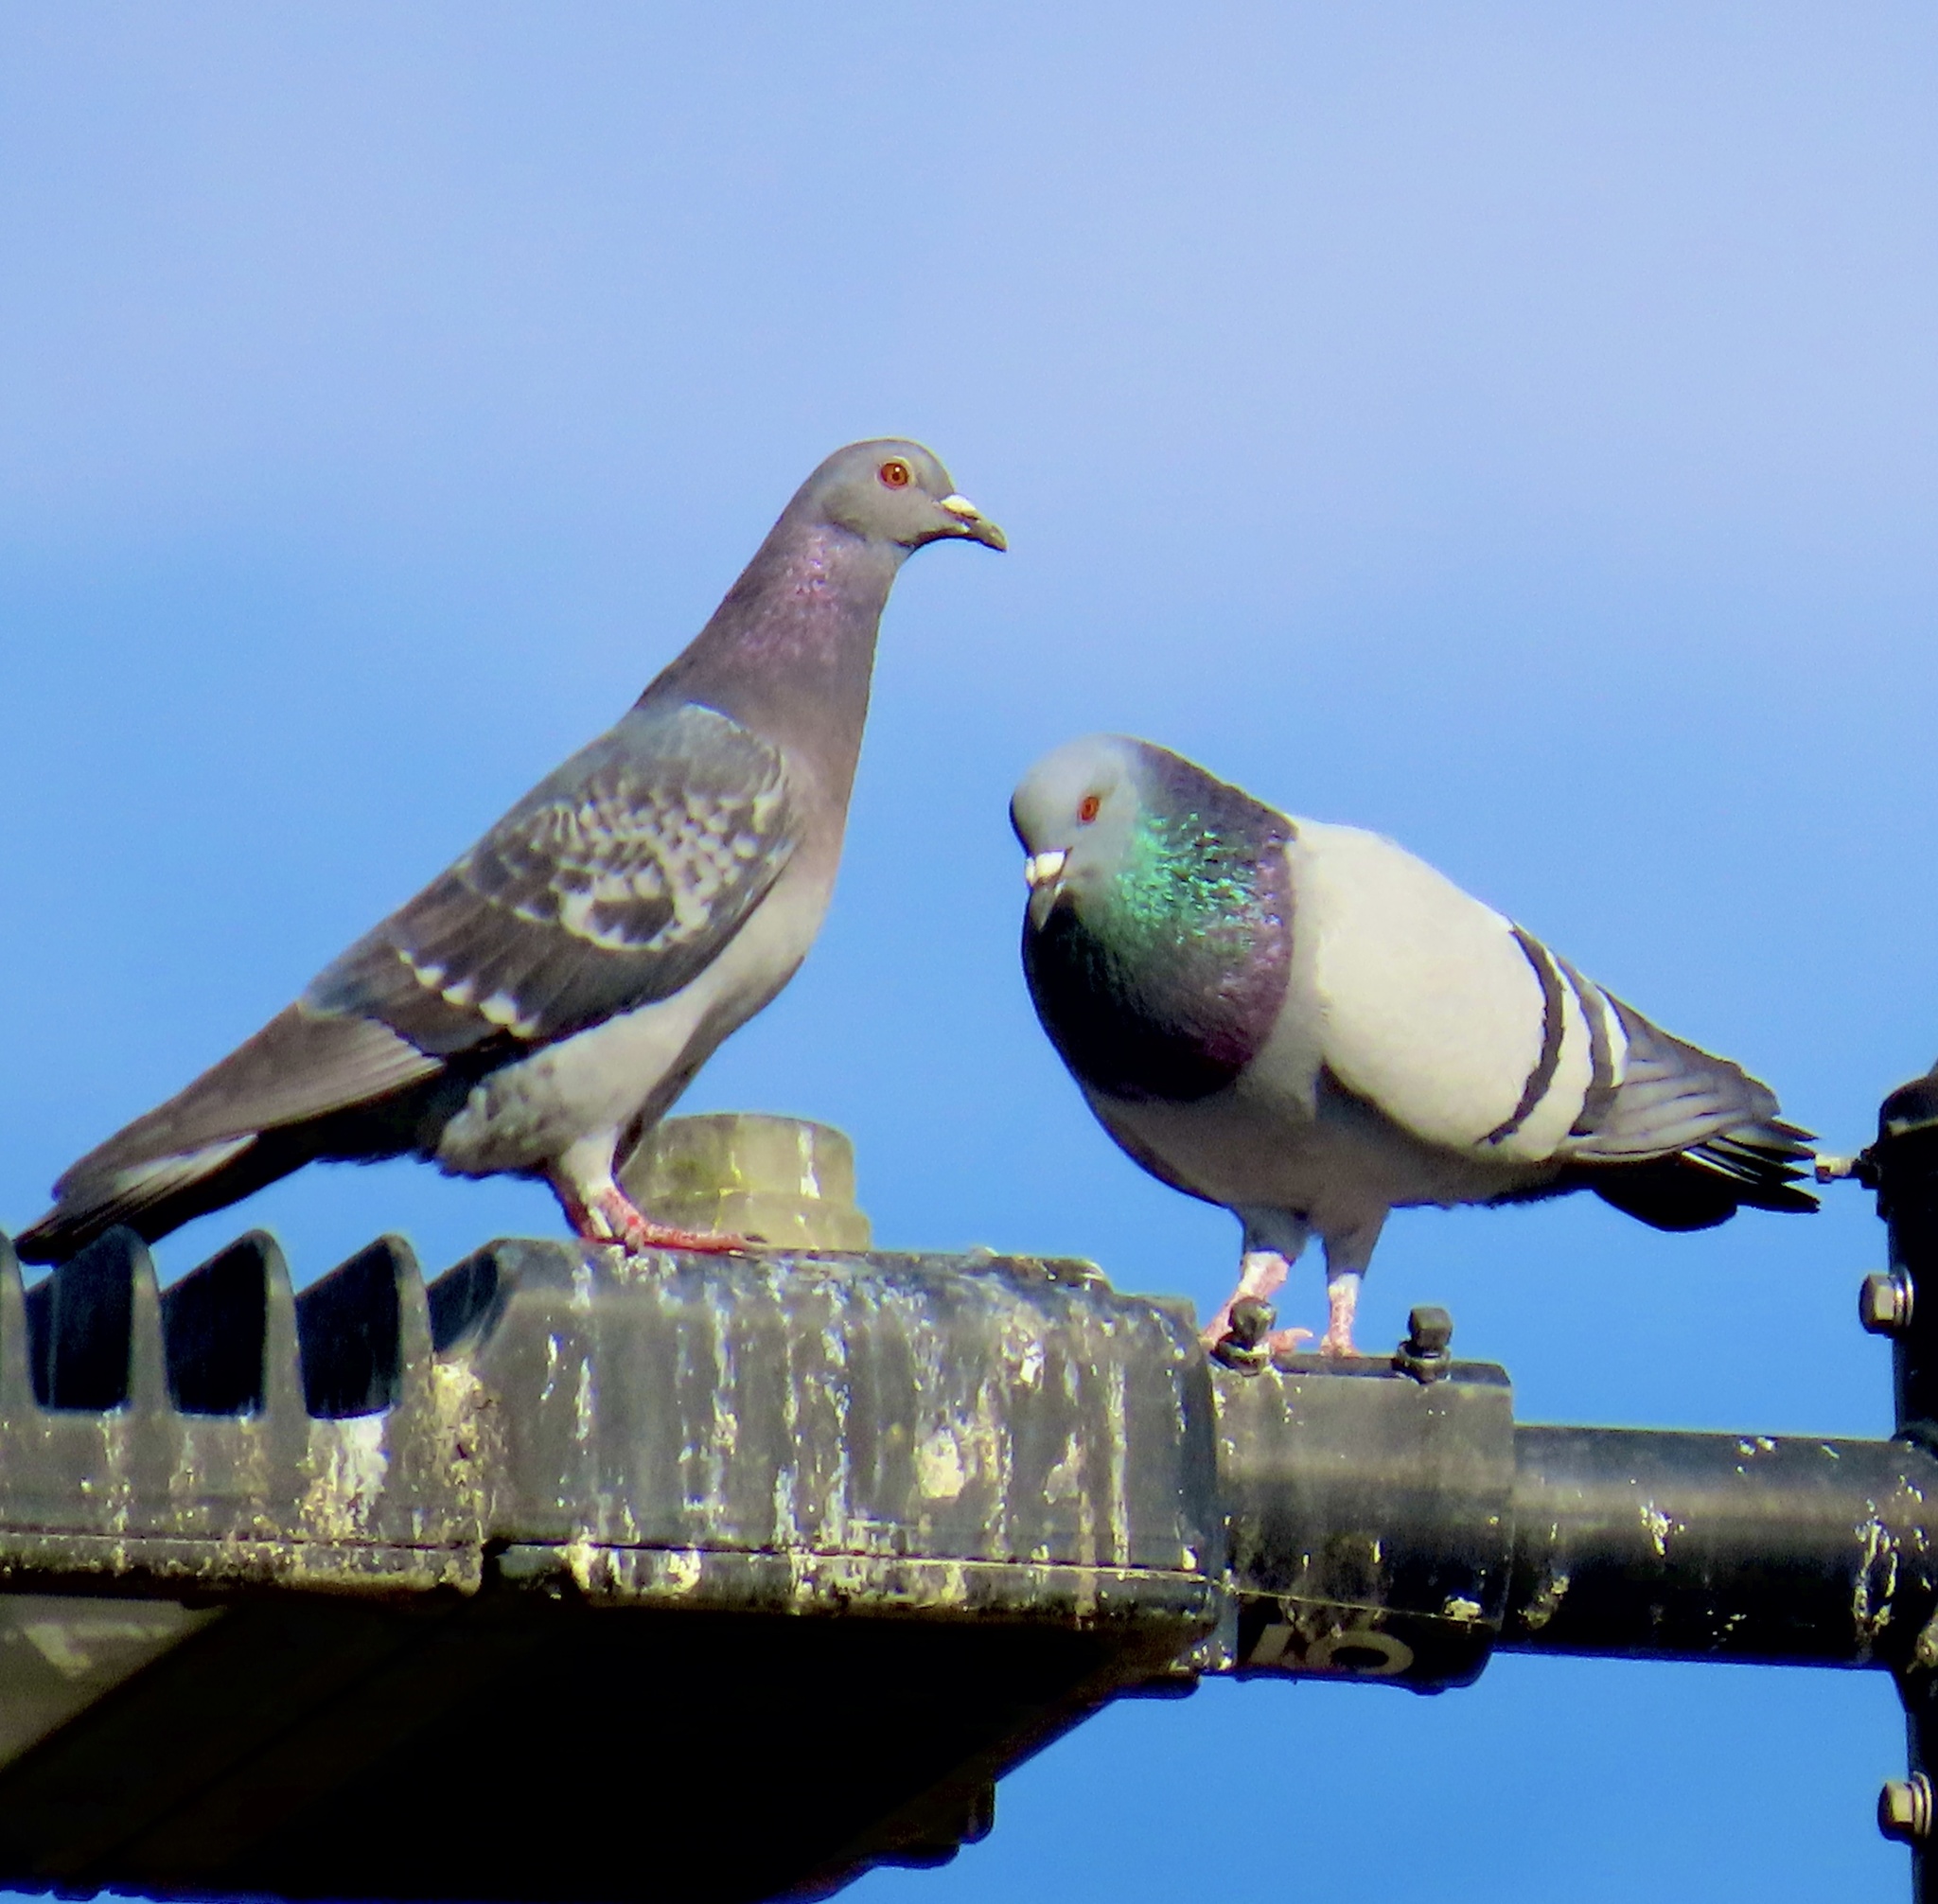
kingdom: Animalia
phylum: Chordata
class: Aves
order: Columbiformes
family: Columbidae
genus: Columba
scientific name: Columba livia
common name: Rock pigeon
